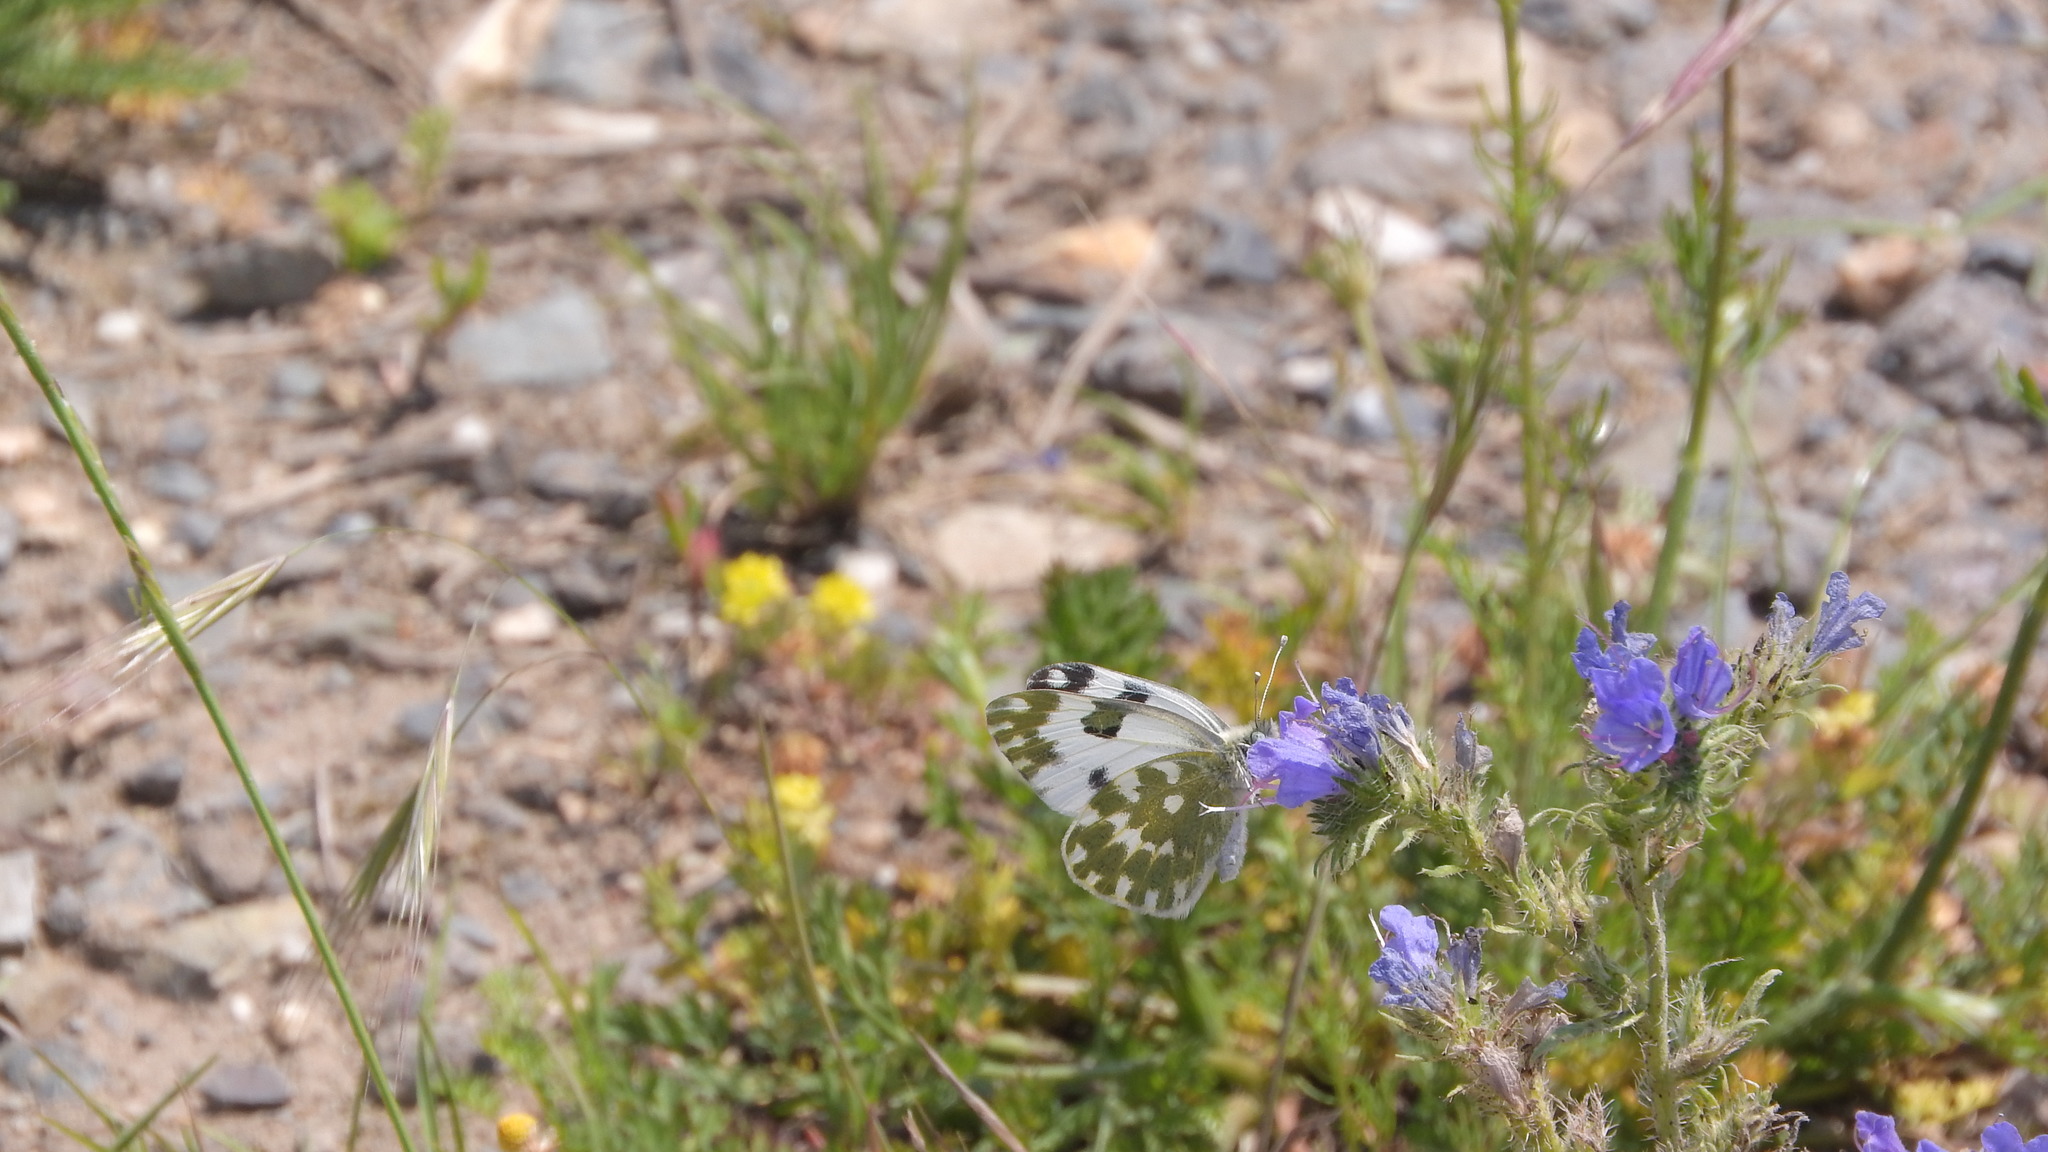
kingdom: Animalia
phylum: Arthropoda
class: Insecta
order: Lepidoptera
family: Pieridae
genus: Pontia
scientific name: Pontia edusa
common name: Eastern bath white
